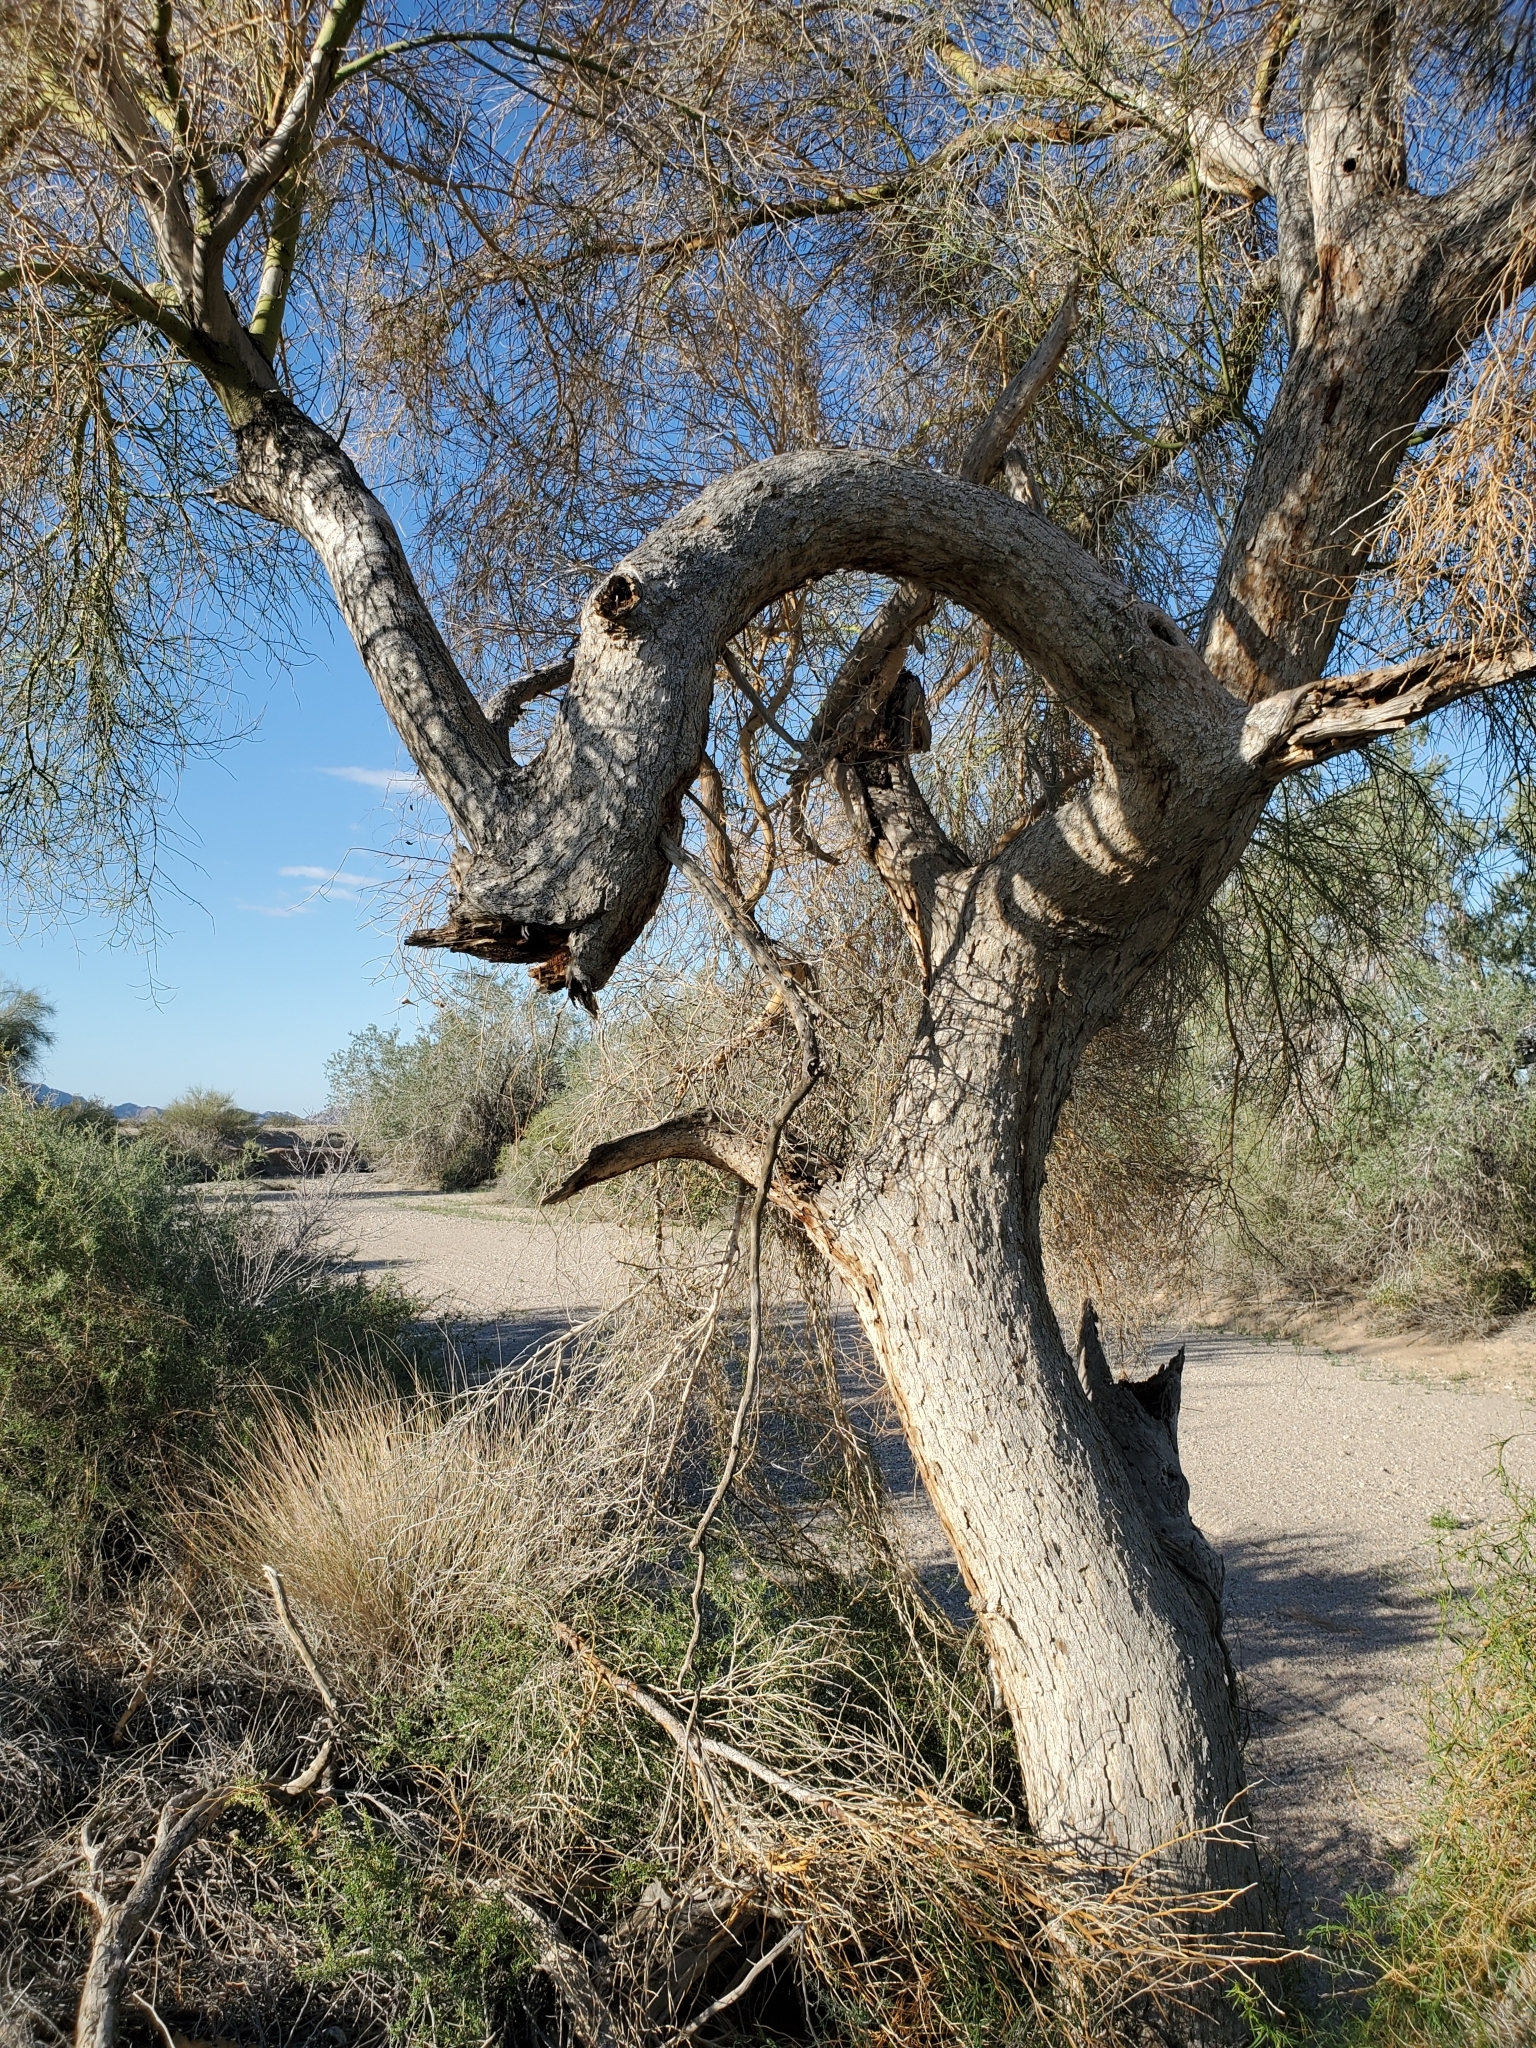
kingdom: Plantae
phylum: Tracheophyta
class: Magnoliopsida
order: Fabales
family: Fabaceae
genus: Parkinsonia
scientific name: Parkinsonia florida
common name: Blue paloverde
